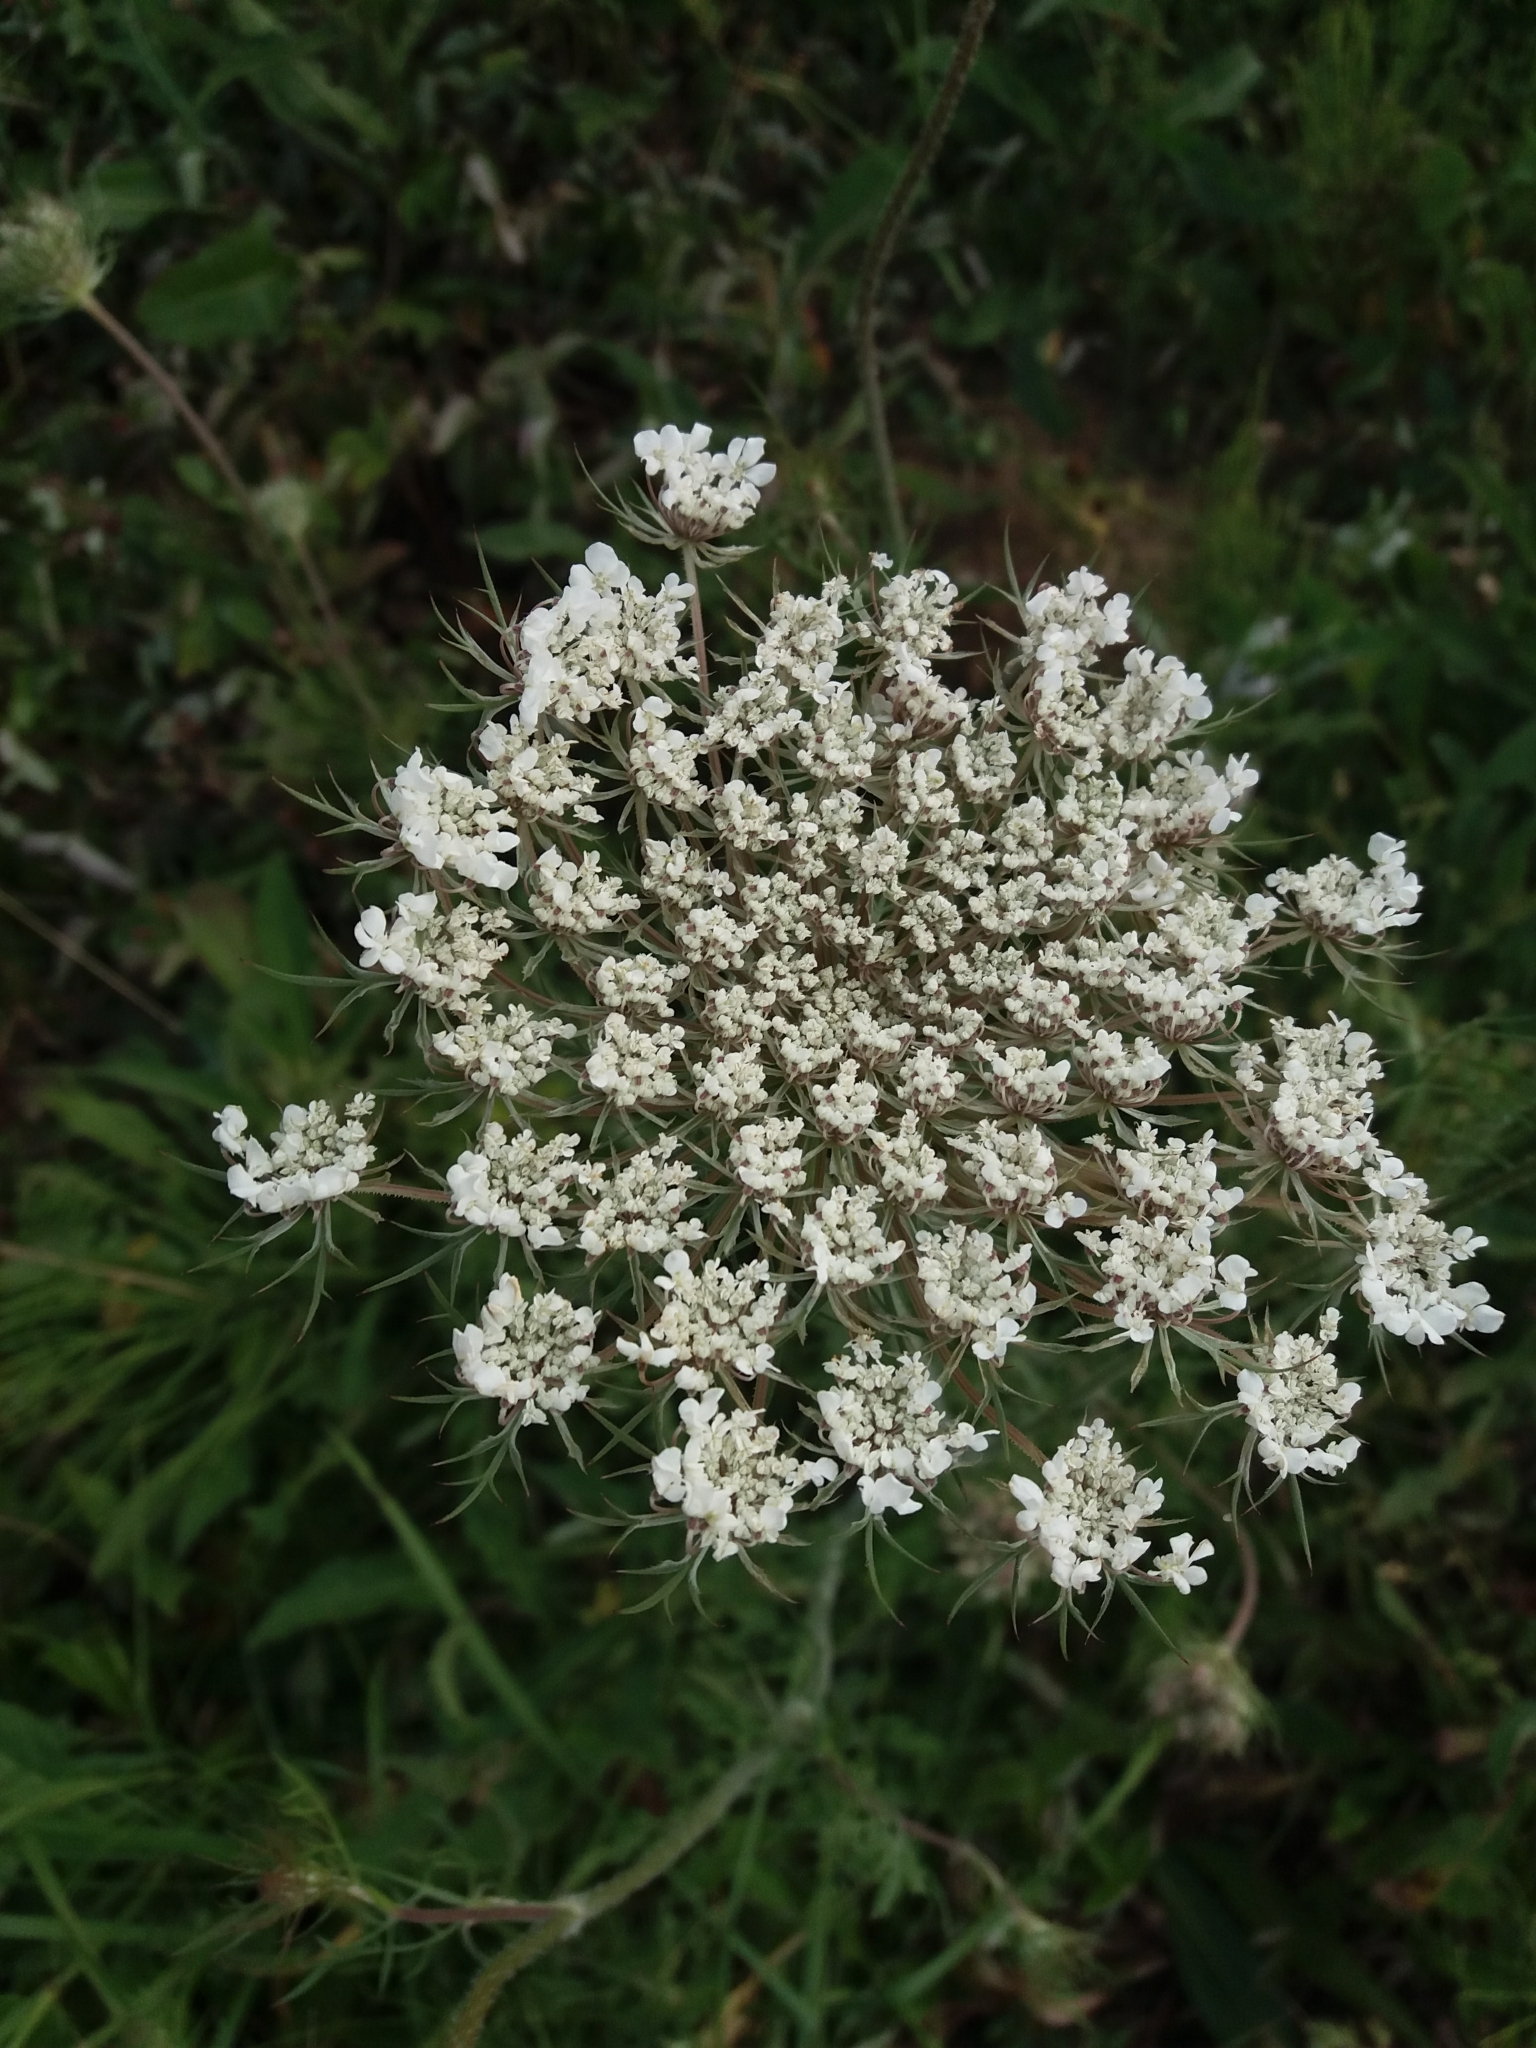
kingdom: Plantae
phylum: Tracheophyta
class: Magnoliopsida
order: Apiales
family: Apiaceae
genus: Daucus
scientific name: Daucus carota
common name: Wild carrot
